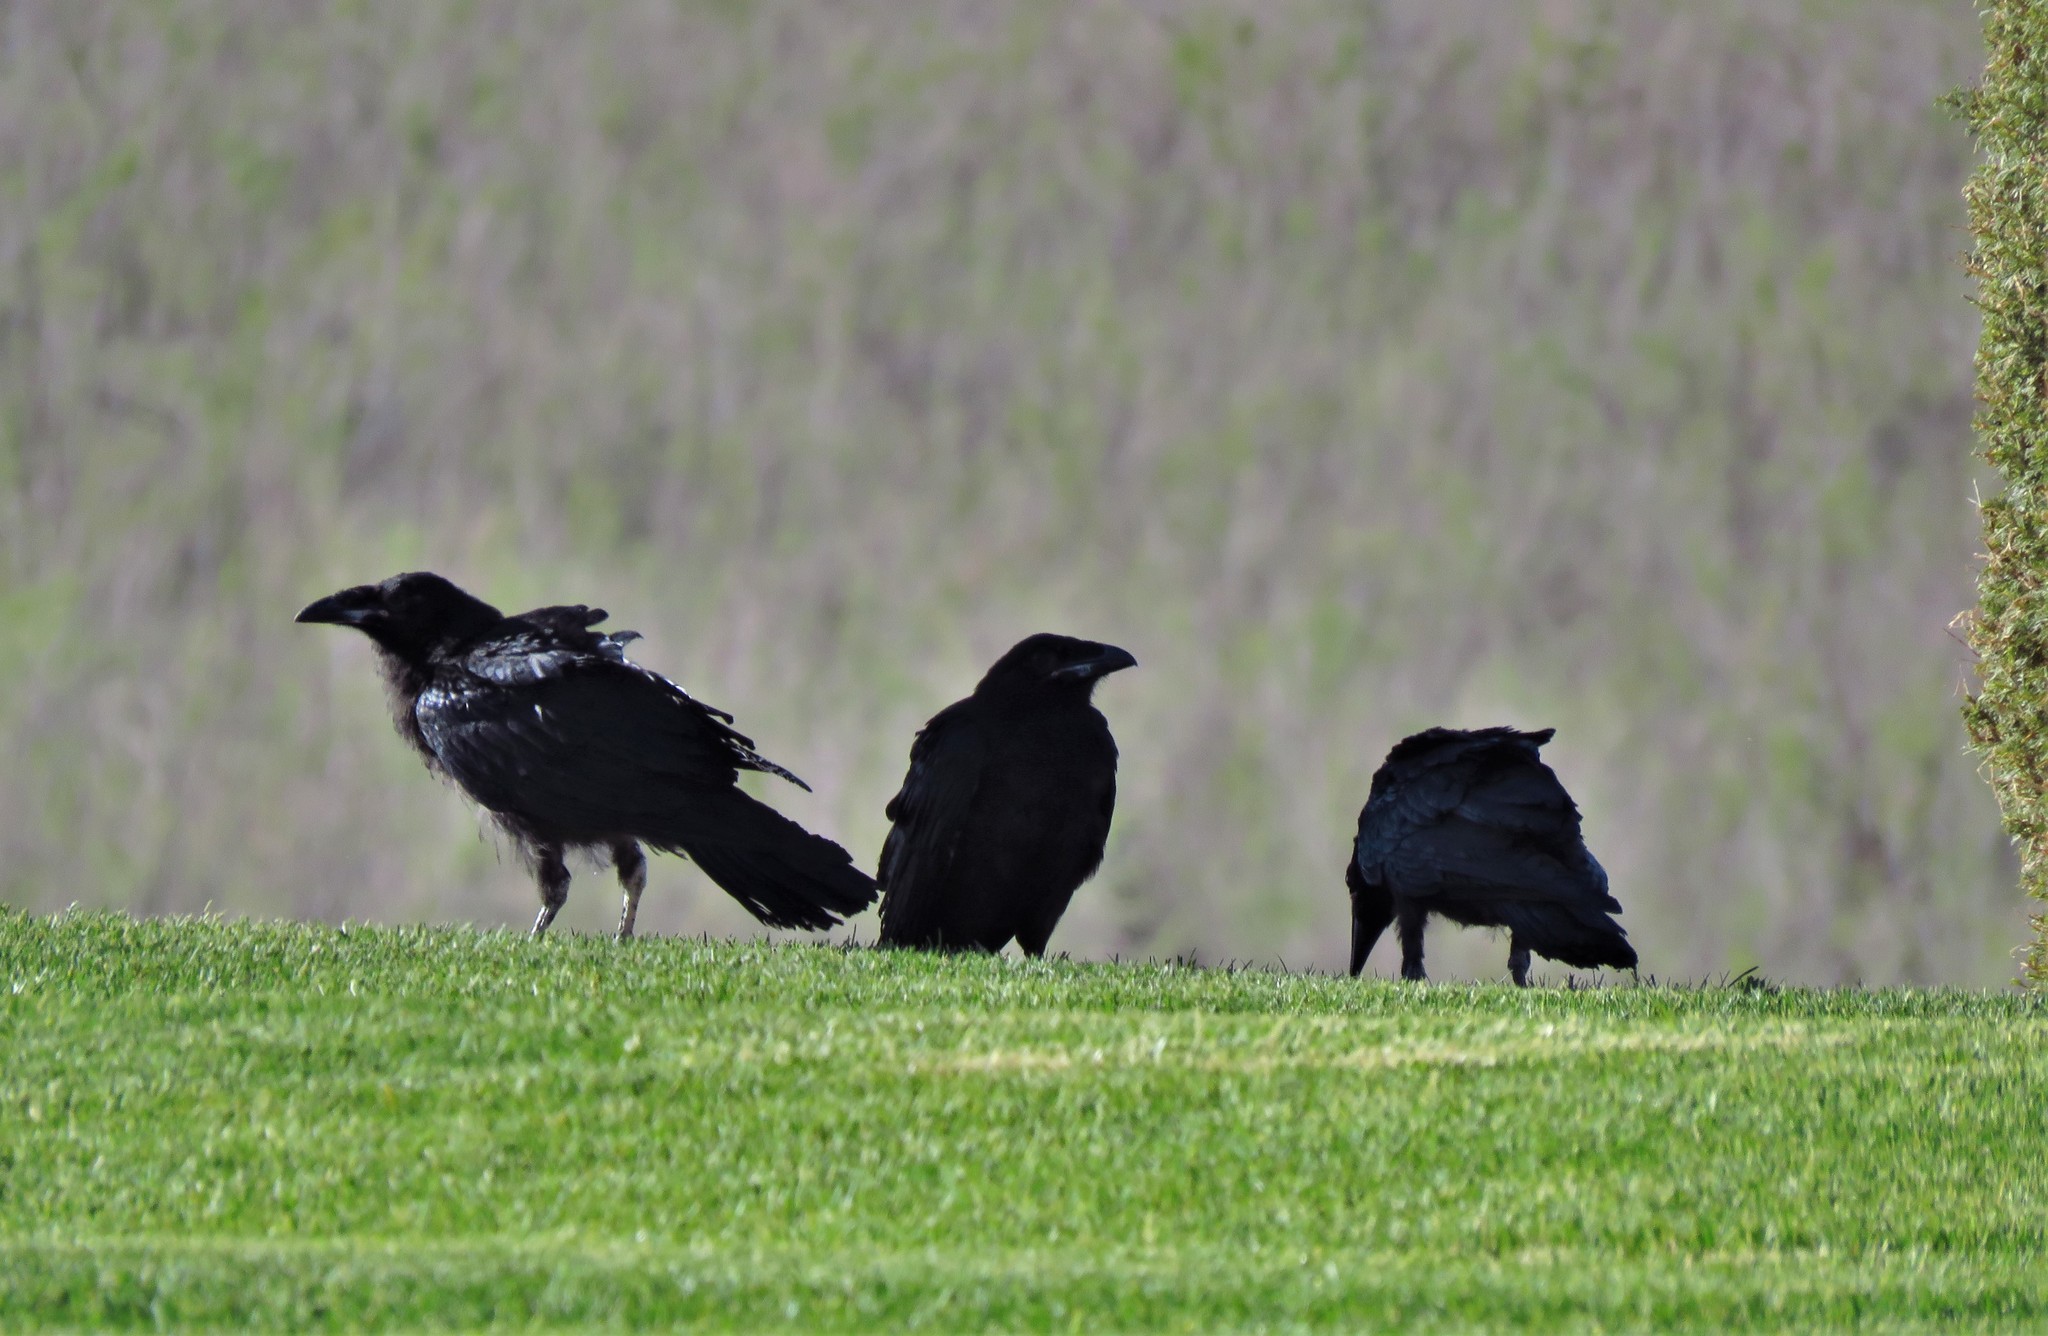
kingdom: Animalia
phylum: Chordata
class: Aves
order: Passeriformes
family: Corvidae
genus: Corvus
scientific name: Corvus corax
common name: Common raven
